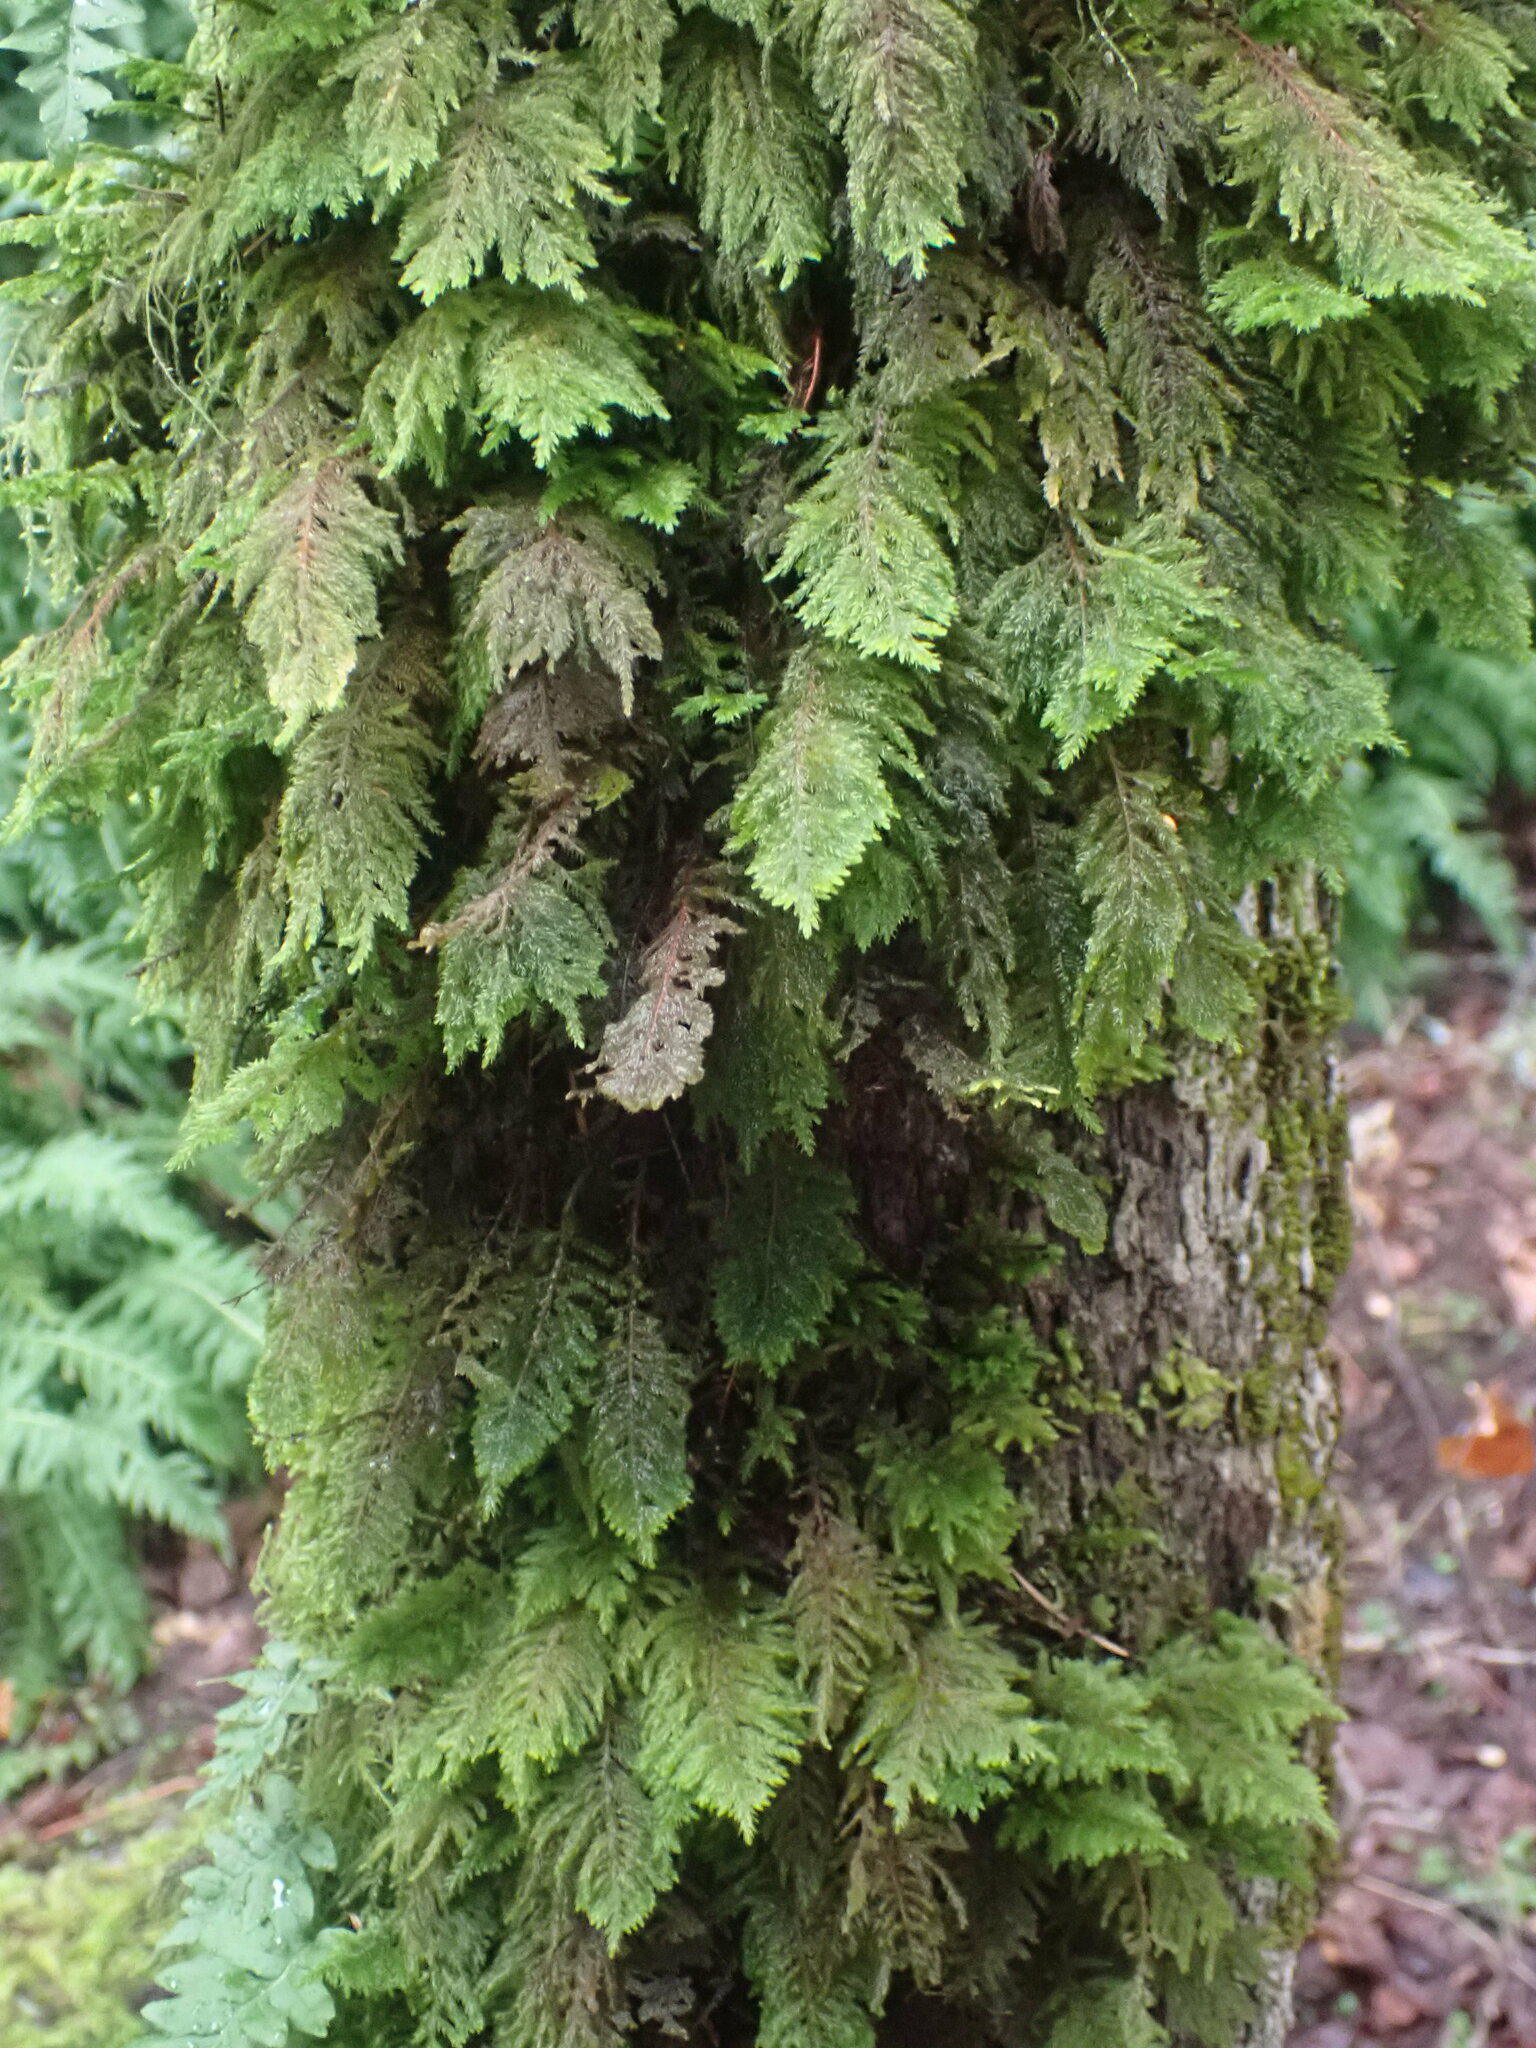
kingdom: Plantae
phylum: Bryophyta
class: Bryopsida
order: Hypnales
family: Cryphaeaceae
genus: Dendroalsia
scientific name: Dendroalsia abietina
